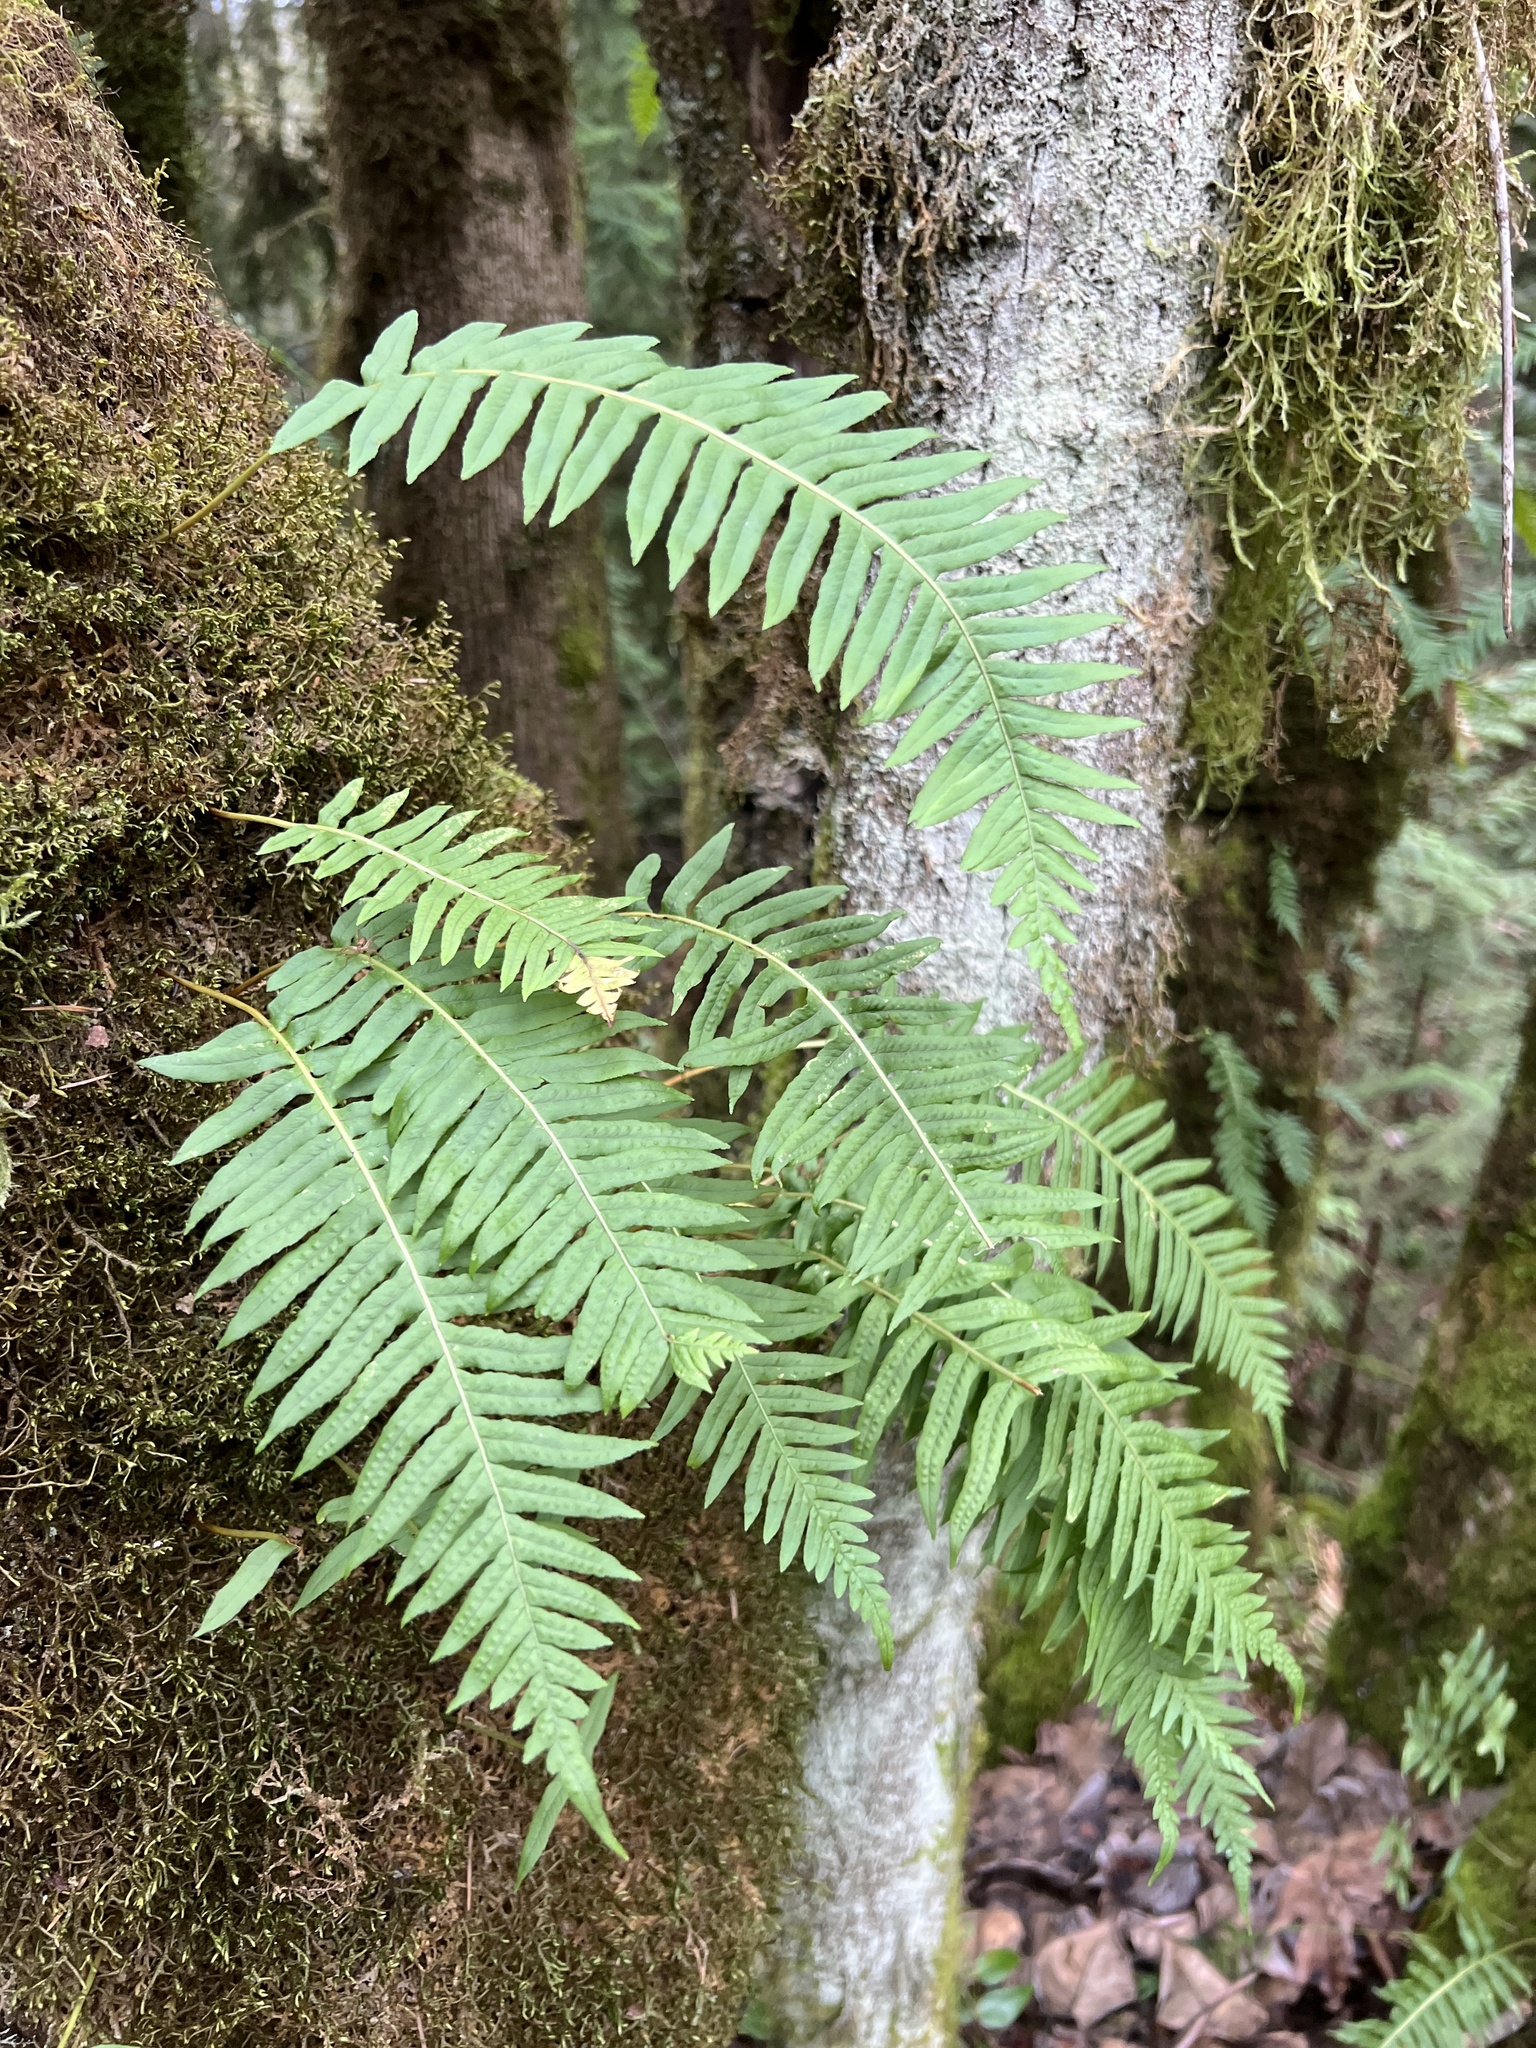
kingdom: Plantae
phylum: Tracheophyta
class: Polypodiopsida
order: Polypodiales
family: Polypodiaceae
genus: Polypodium
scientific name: Polypodium glycyrrhiza
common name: Licorice fern
